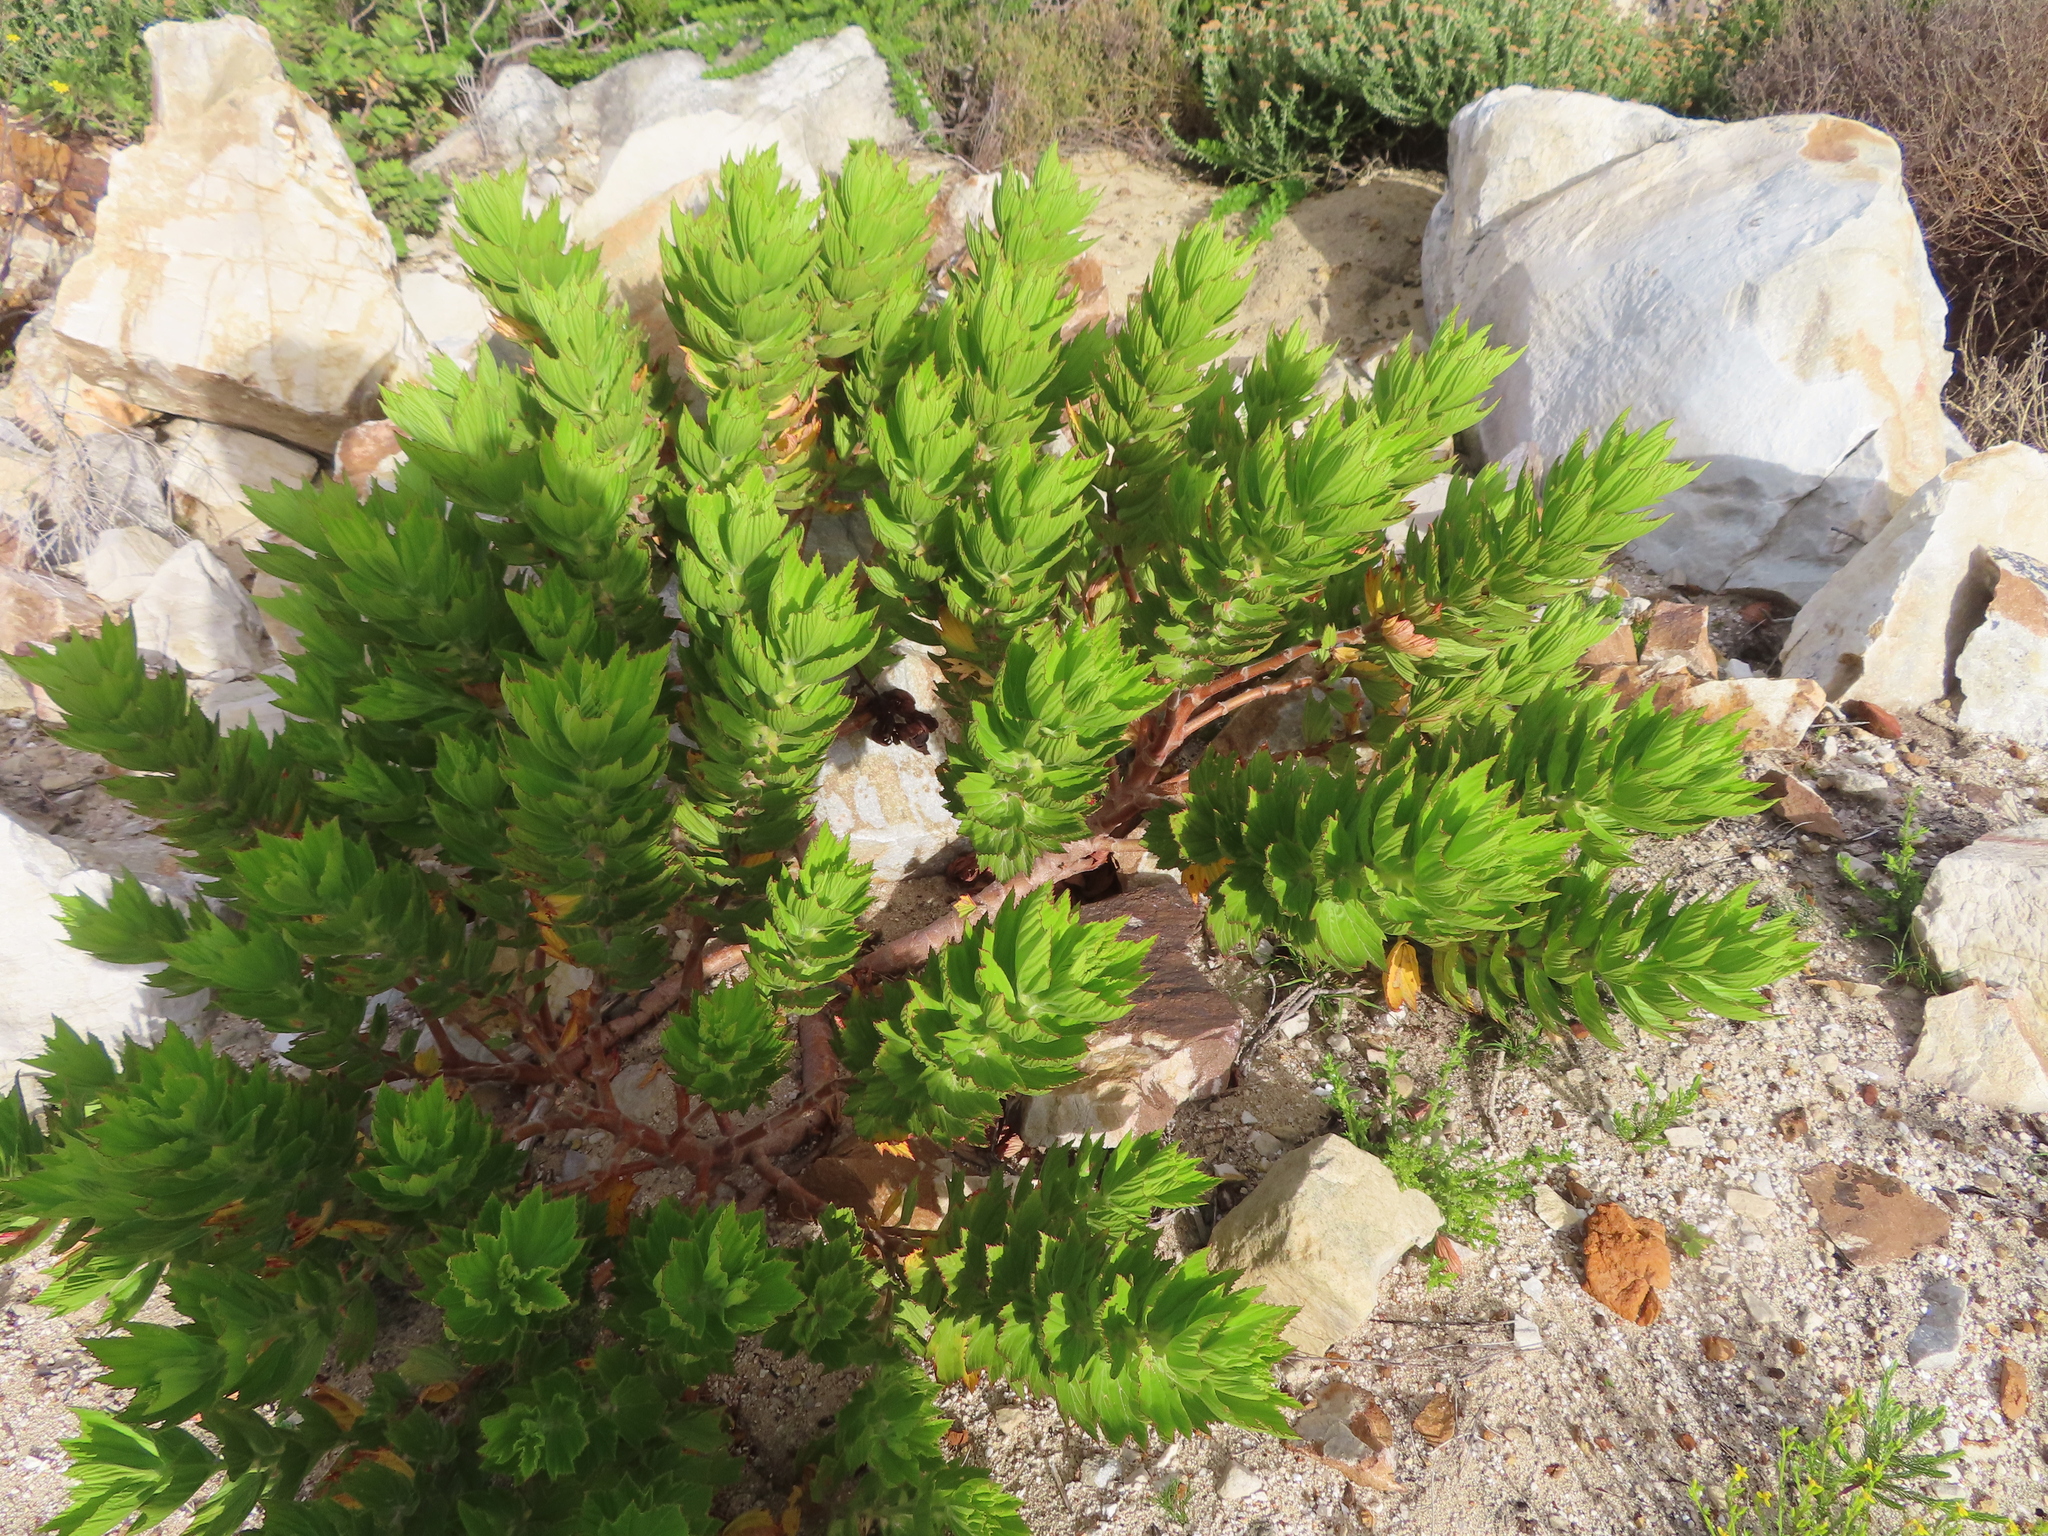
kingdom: Plantae
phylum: Tracheophyta
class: Magnoliopsida
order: Geraniales
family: Geraniaceae
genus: Pelargonium
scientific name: Pelargonium cucullatum
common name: Tree pelargonium
